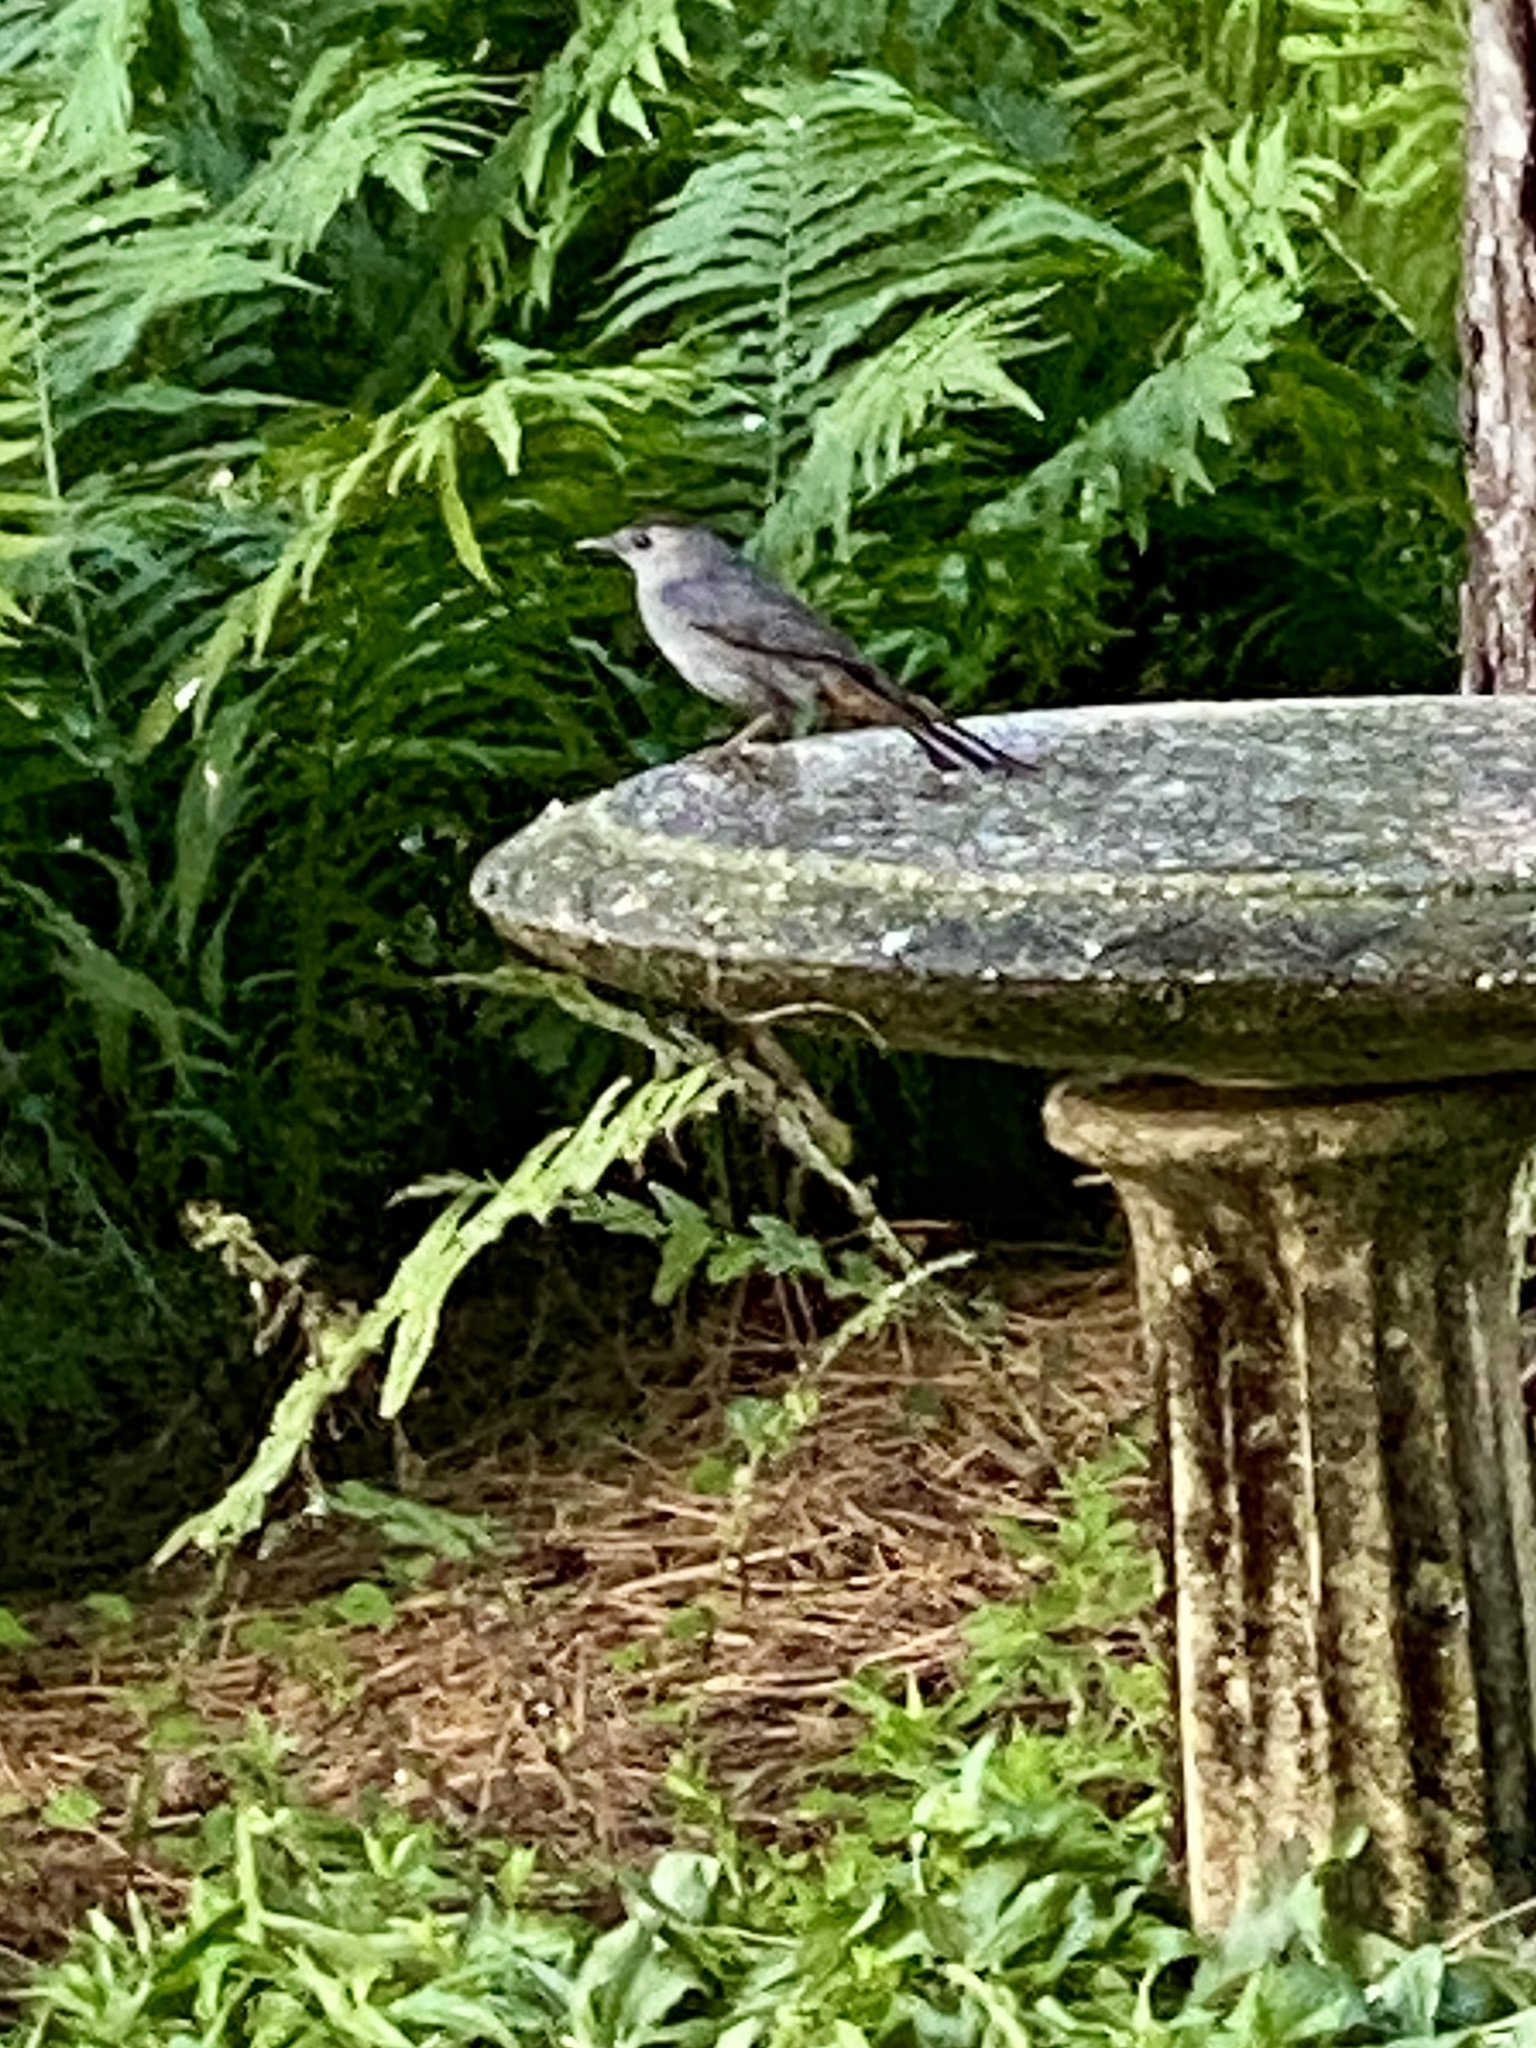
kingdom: Animalia
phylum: Chordata
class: Aves
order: Passeriformes
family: Mimidae
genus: Dumetella
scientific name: Dumetella carolinensis
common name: Gray catbird
